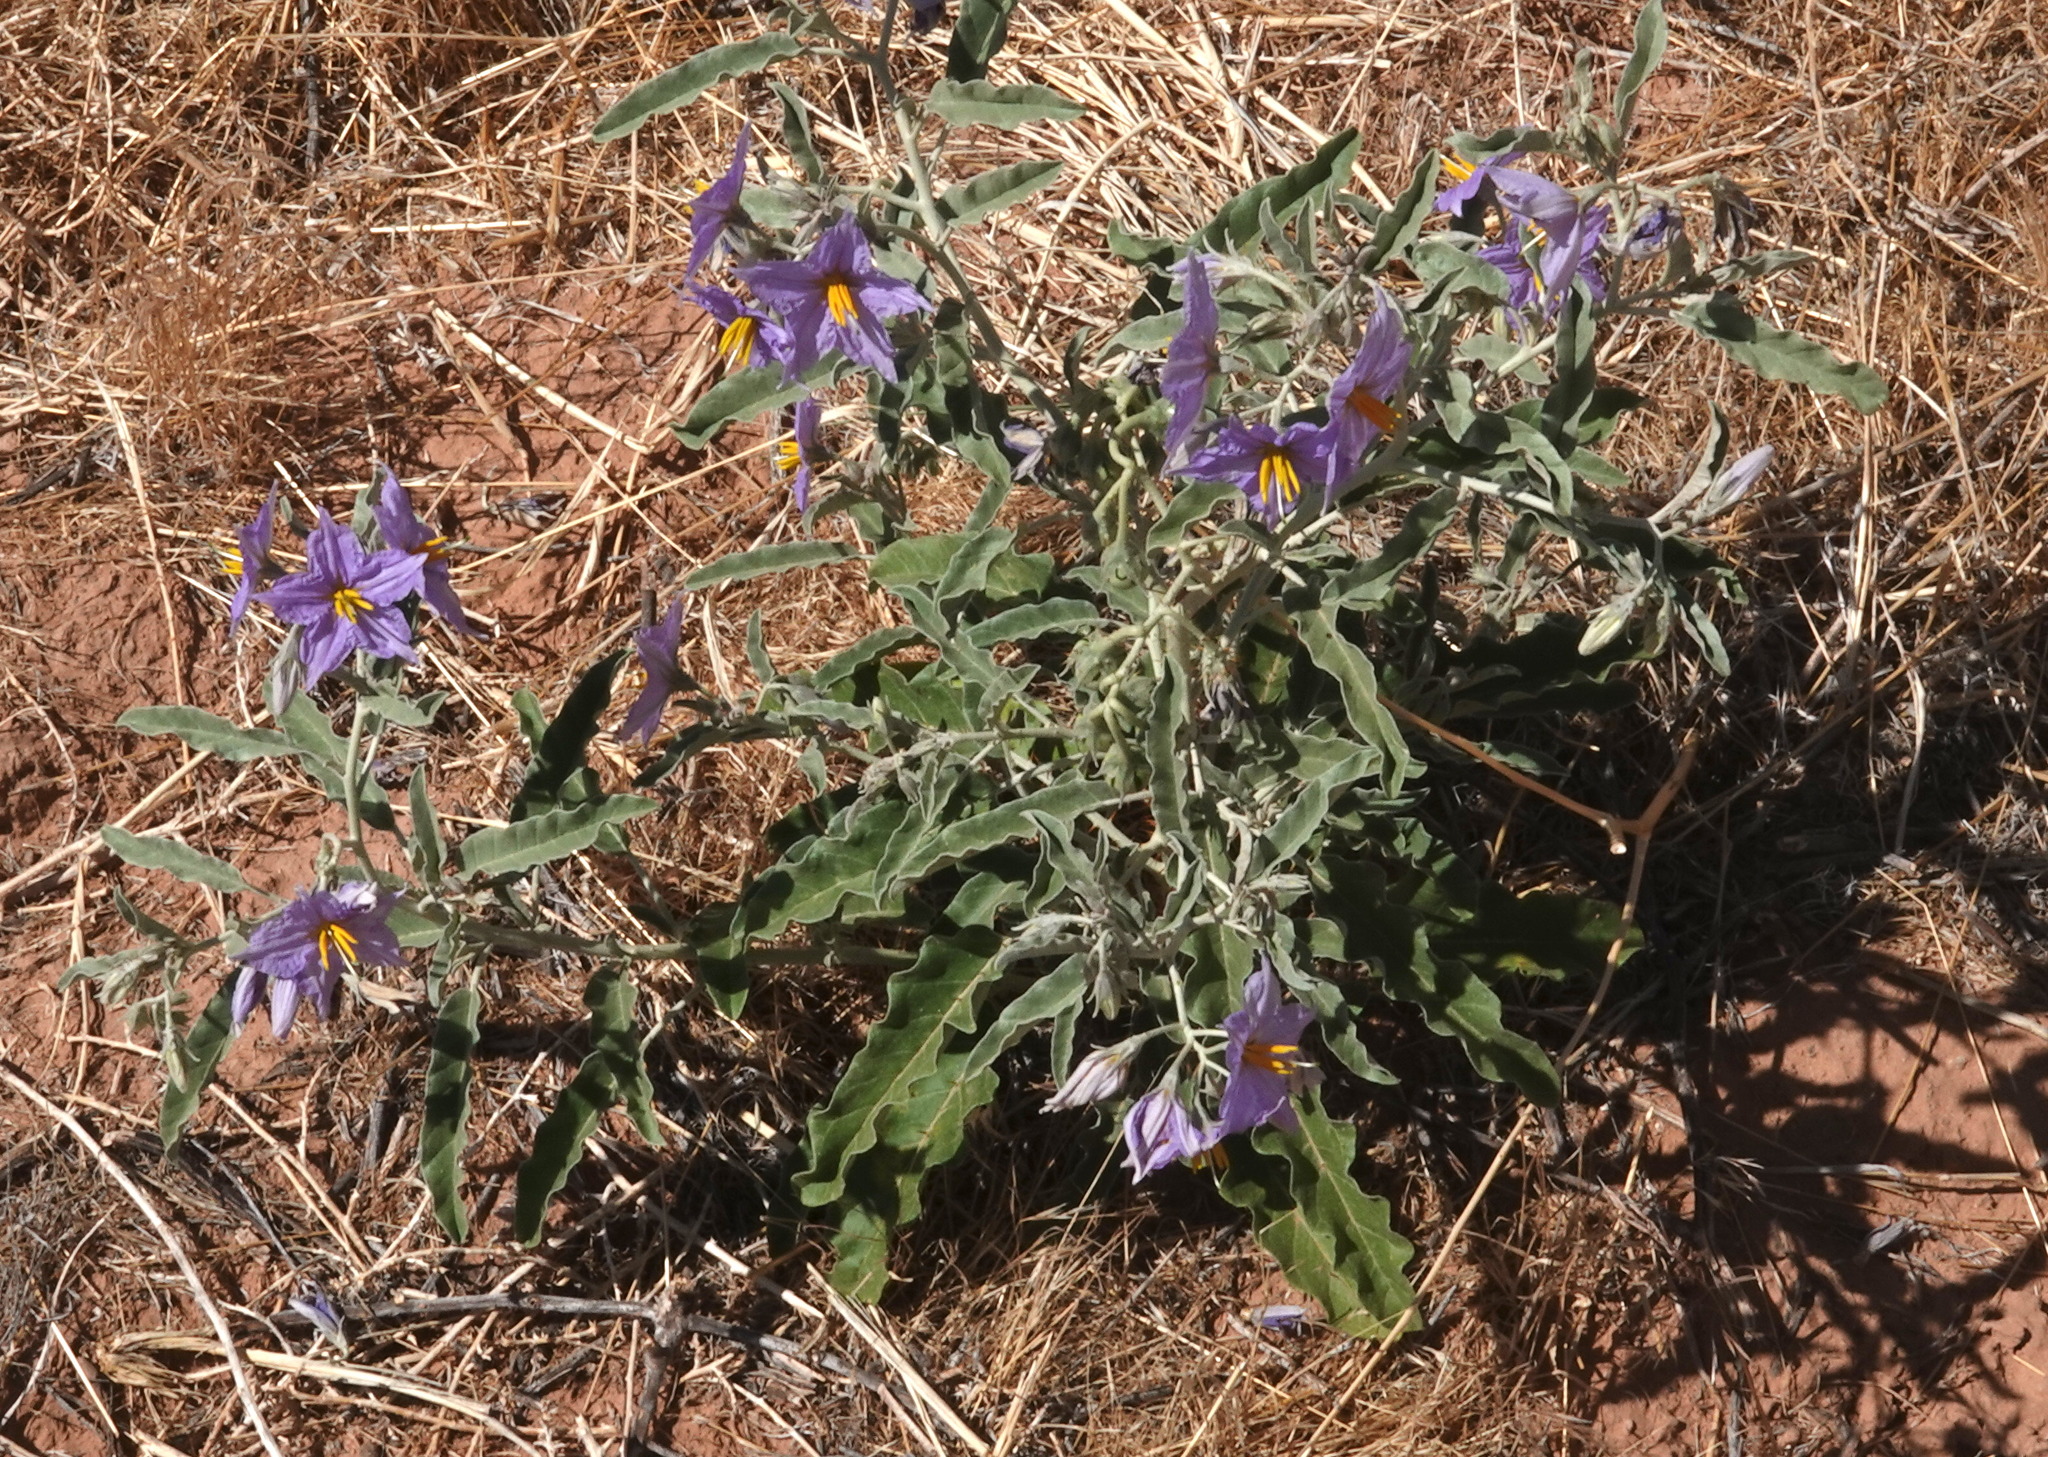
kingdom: Plantae
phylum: Tracheophyta
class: Magnoliopsida
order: Solanales
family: Solanaceae
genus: Solanum
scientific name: Solanum elaeagnifolium
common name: Silverleaf nightshade
